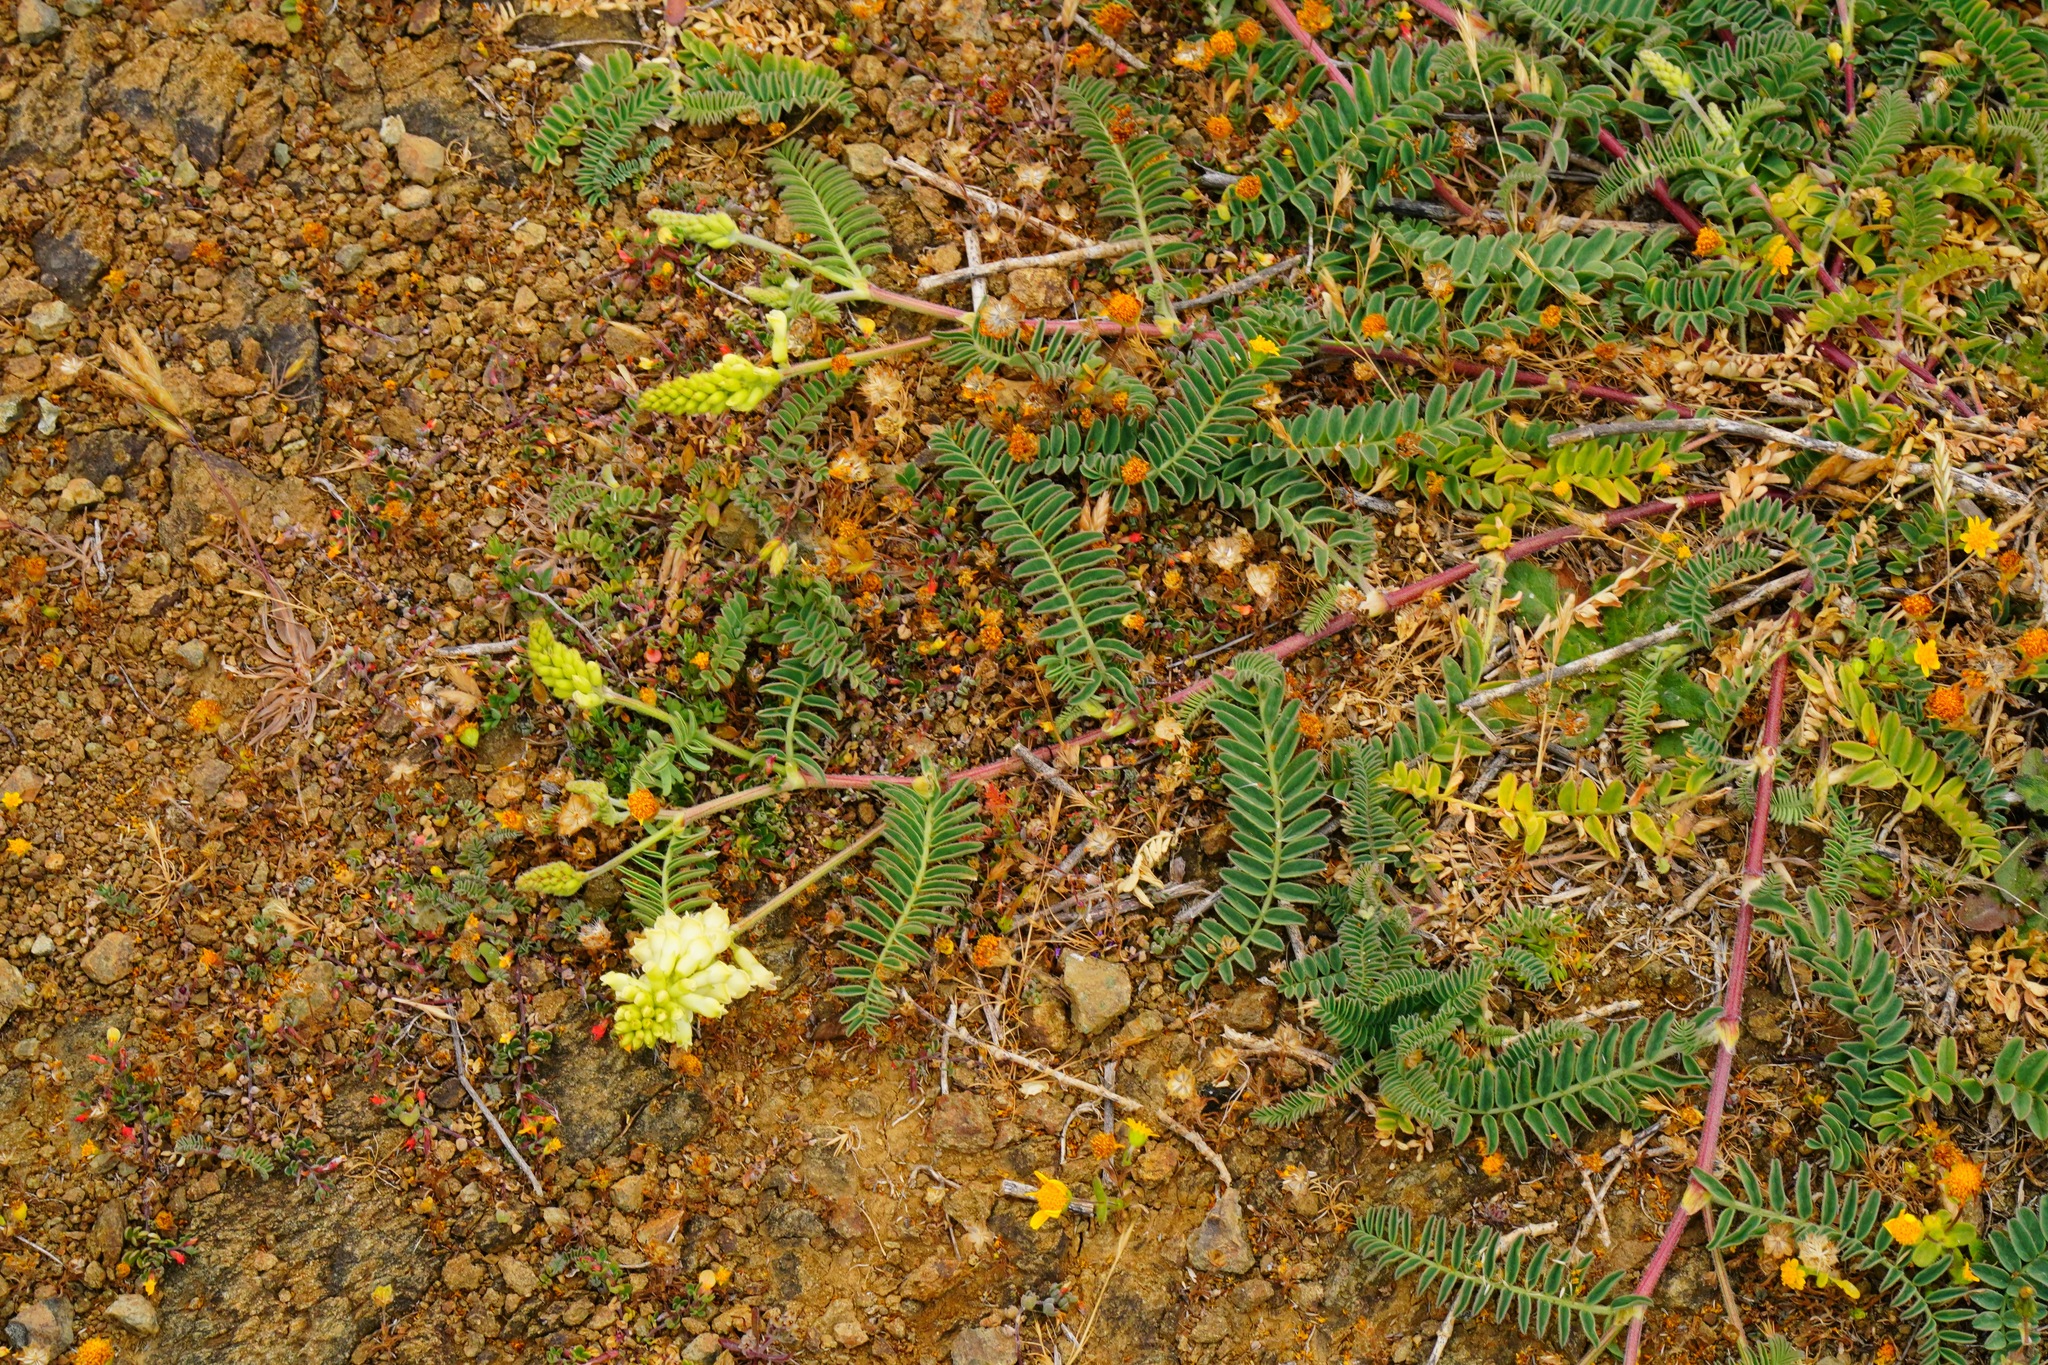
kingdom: Plantae
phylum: Tracheophyta
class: Magnoliopsida
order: Fabales
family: Fabaceae
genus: Astragalus
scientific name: Astragalus nuttallii
